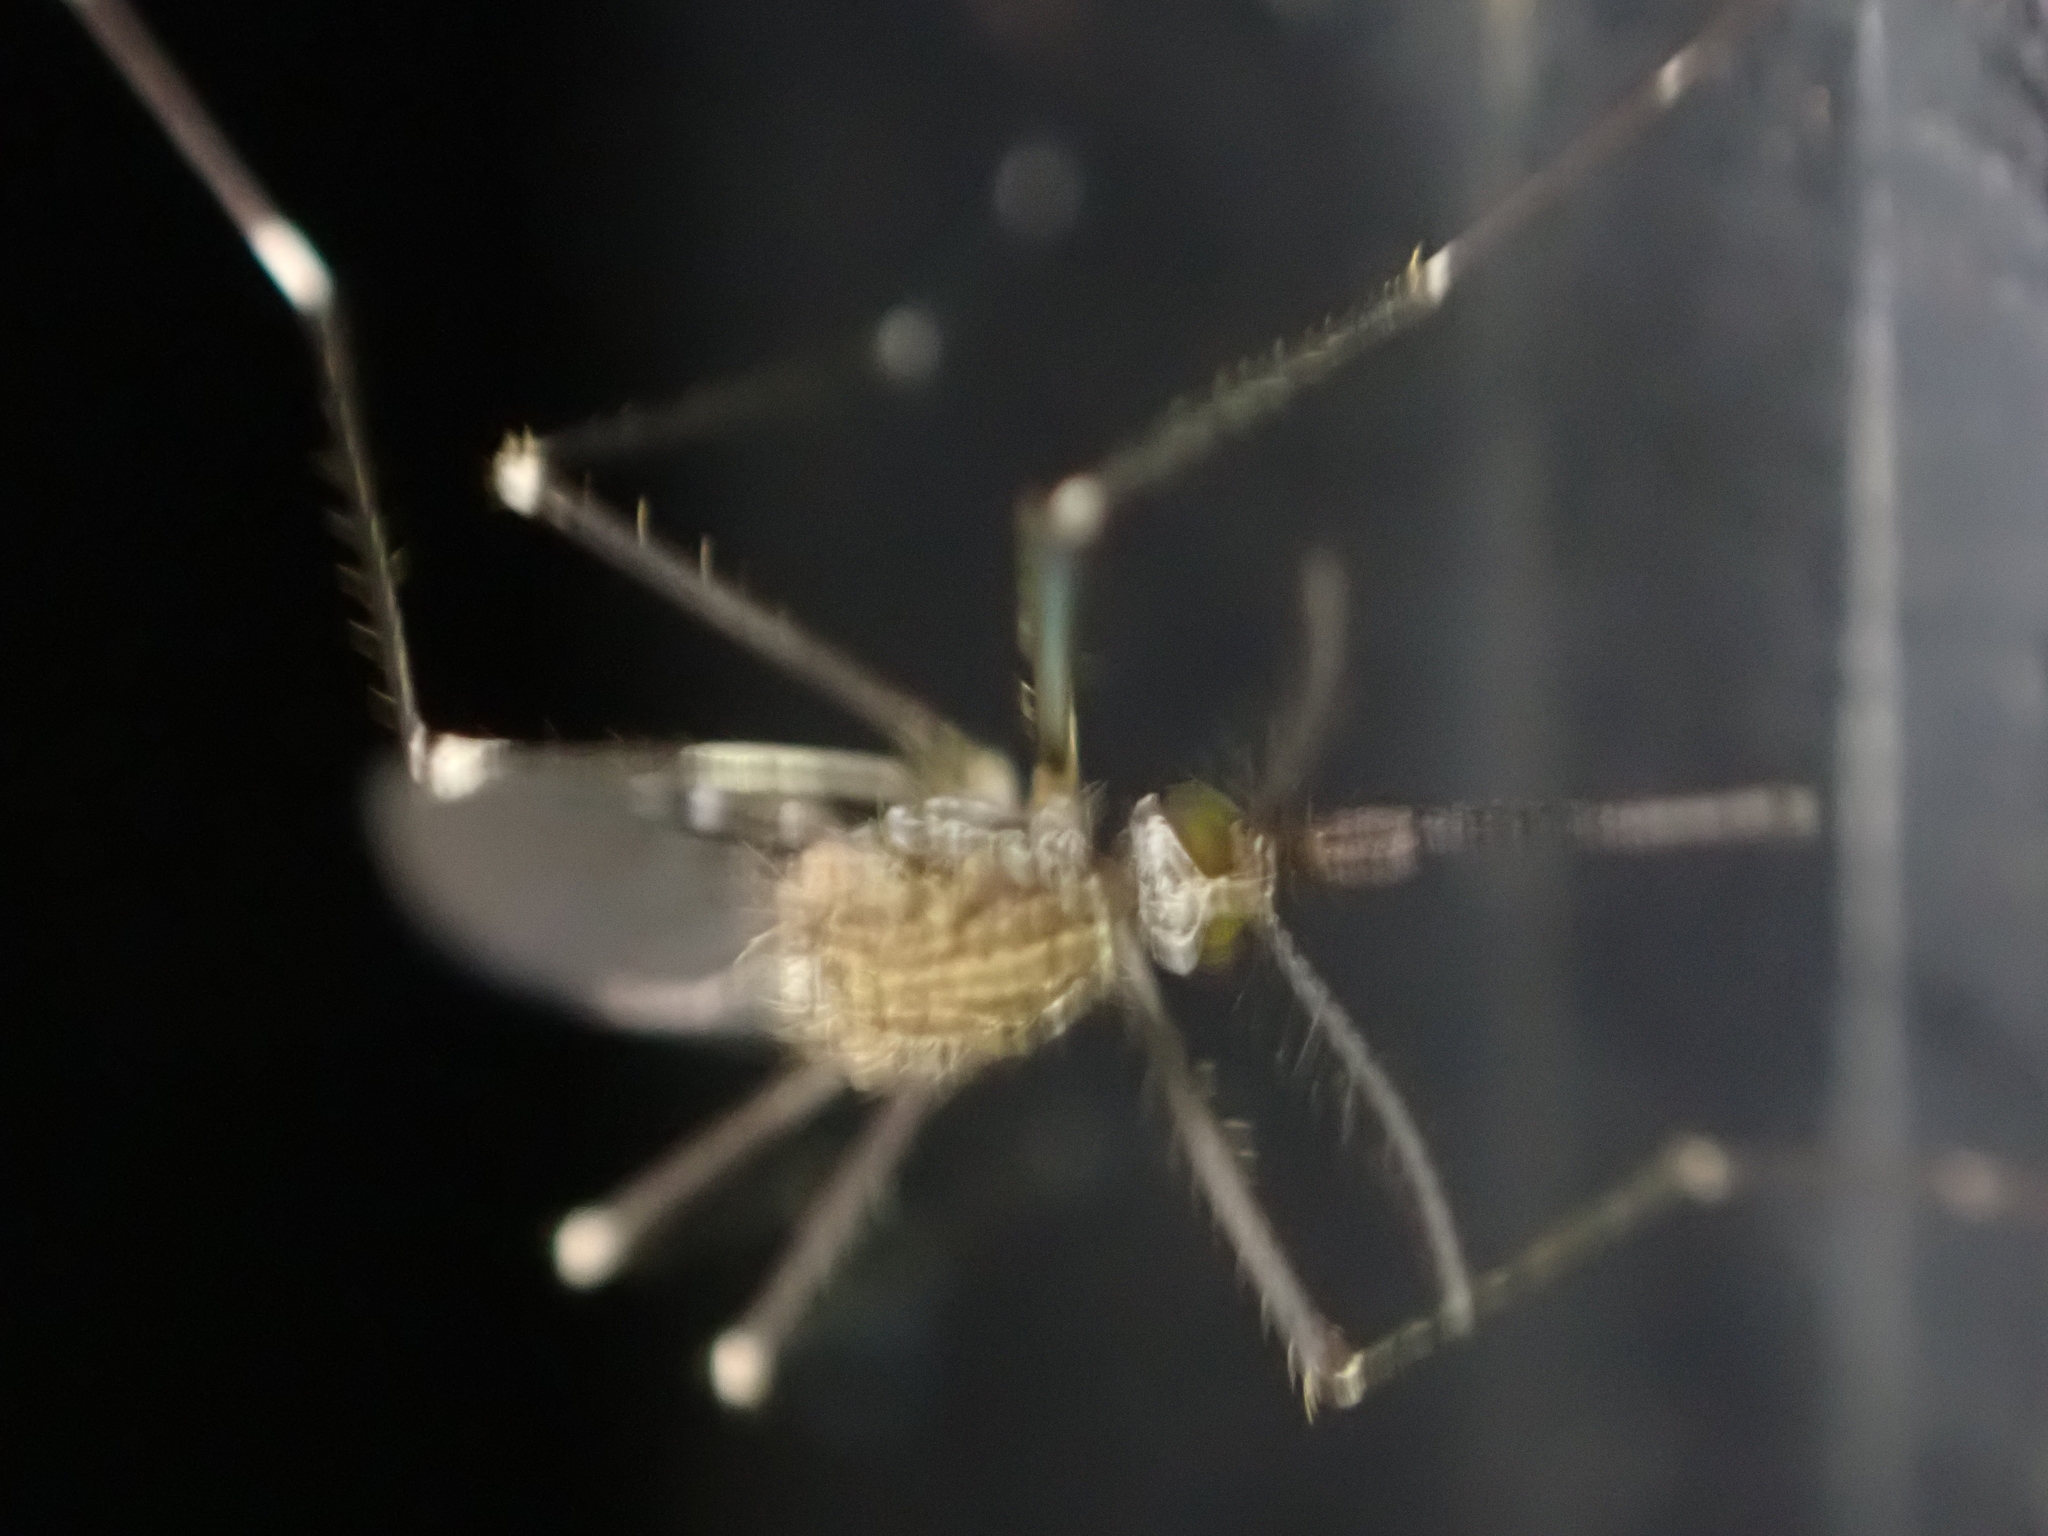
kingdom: Animalia
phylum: Arthropoda
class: Insecta
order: Diptera
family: Culicidae
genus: Aedes
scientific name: Aedes japonicus
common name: Asian bush mosquito
